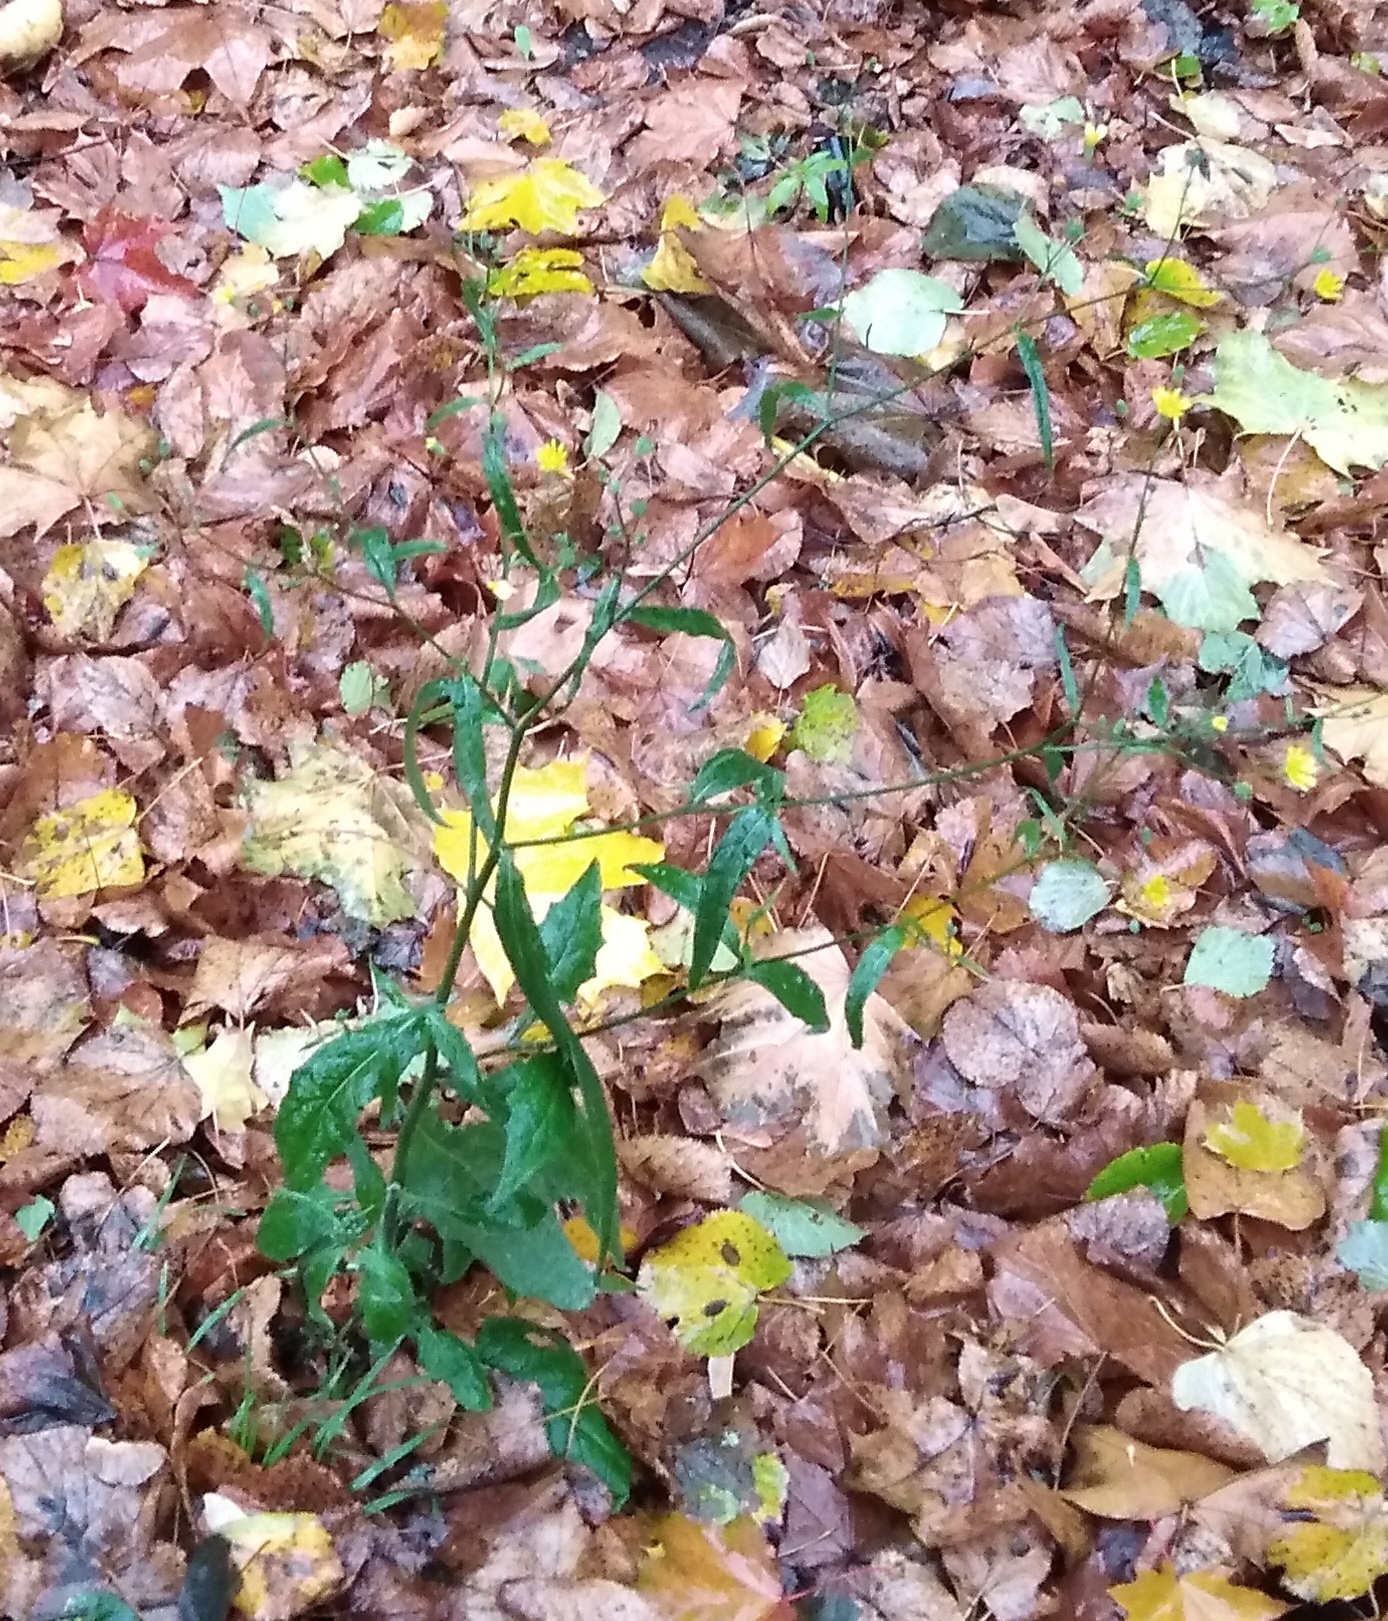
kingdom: Plantae
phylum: Tracheophyta
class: Magnoliopsida
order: Asterales
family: Asteraceae
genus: Lapsana
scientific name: Lapsana communis
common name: Nipplewort
